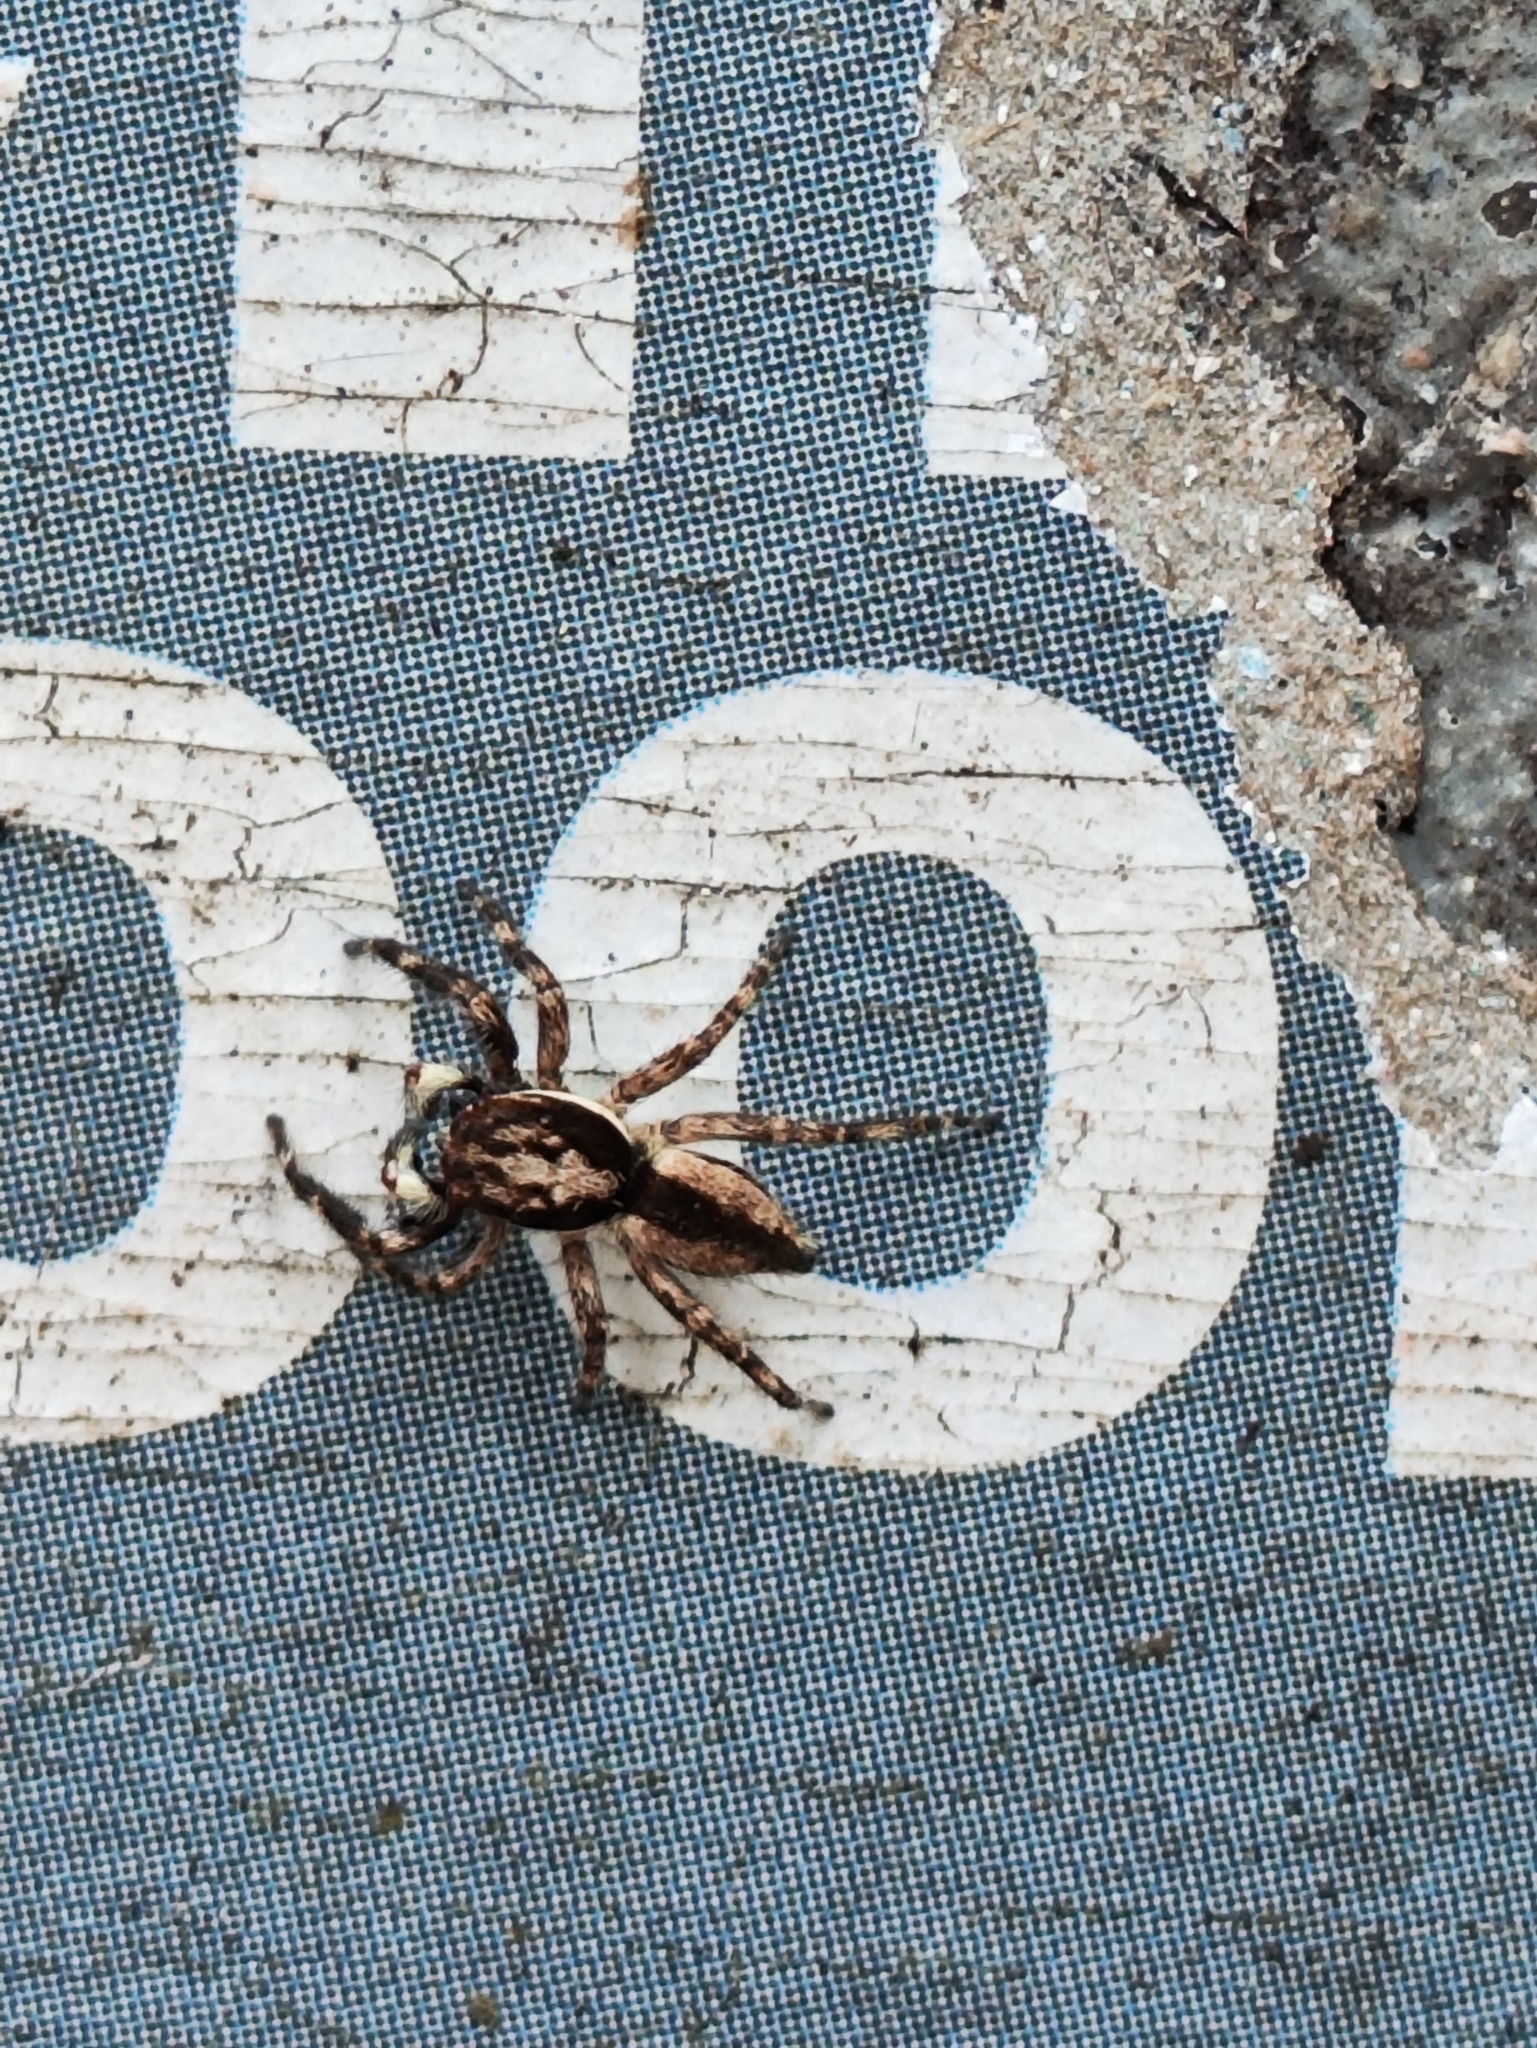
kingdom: Animalia
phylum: Arthropoda
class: Arachnida
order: Araneae
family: Salticidae
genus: Menemerus
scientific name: Menemerus bivittatus
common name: Gray wall jumper
